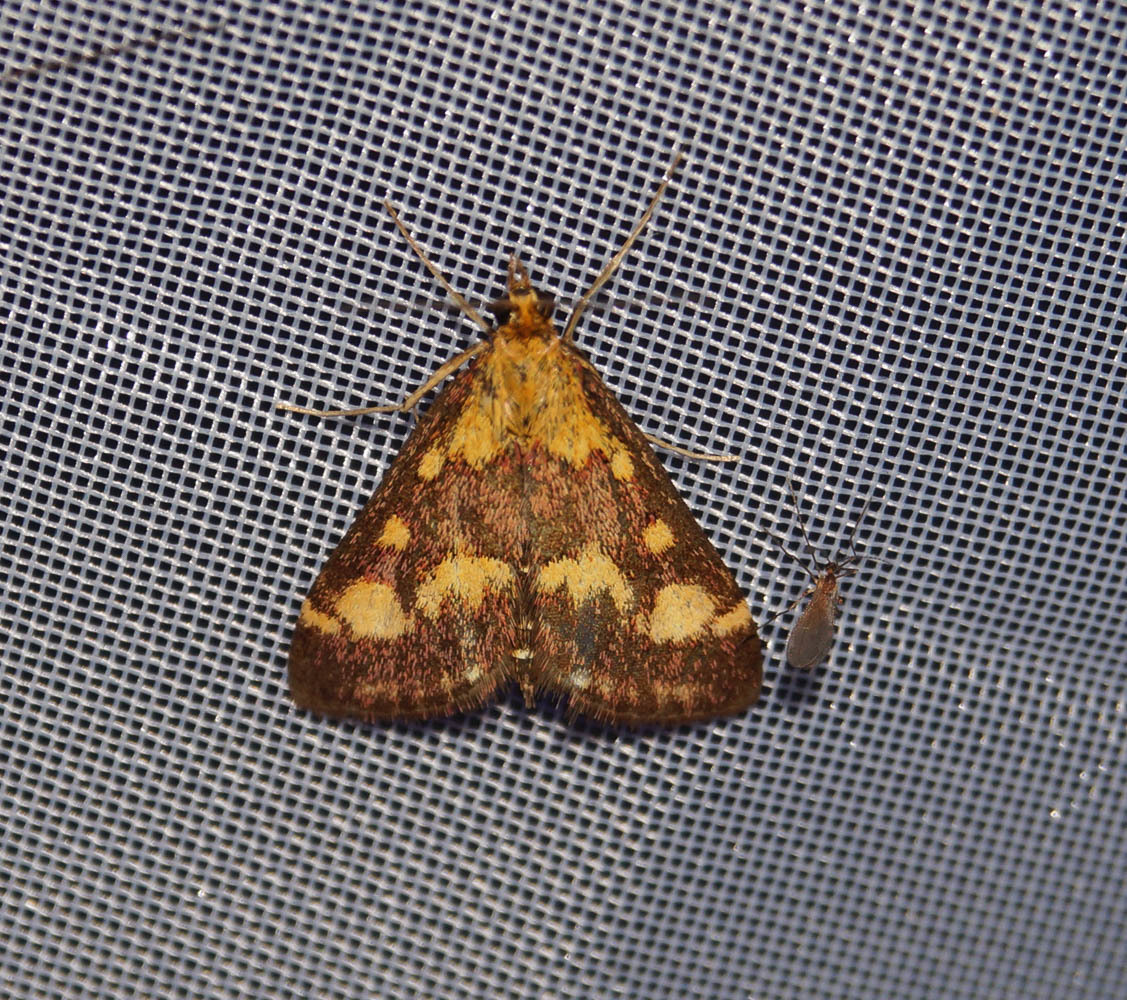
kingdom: Animalia
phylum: Arthropoda
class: Insecta
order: Lepidoptera
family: Crambidae
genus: Pyrausta
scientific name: Pyrausta purpuralis
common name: Common purple & gold
